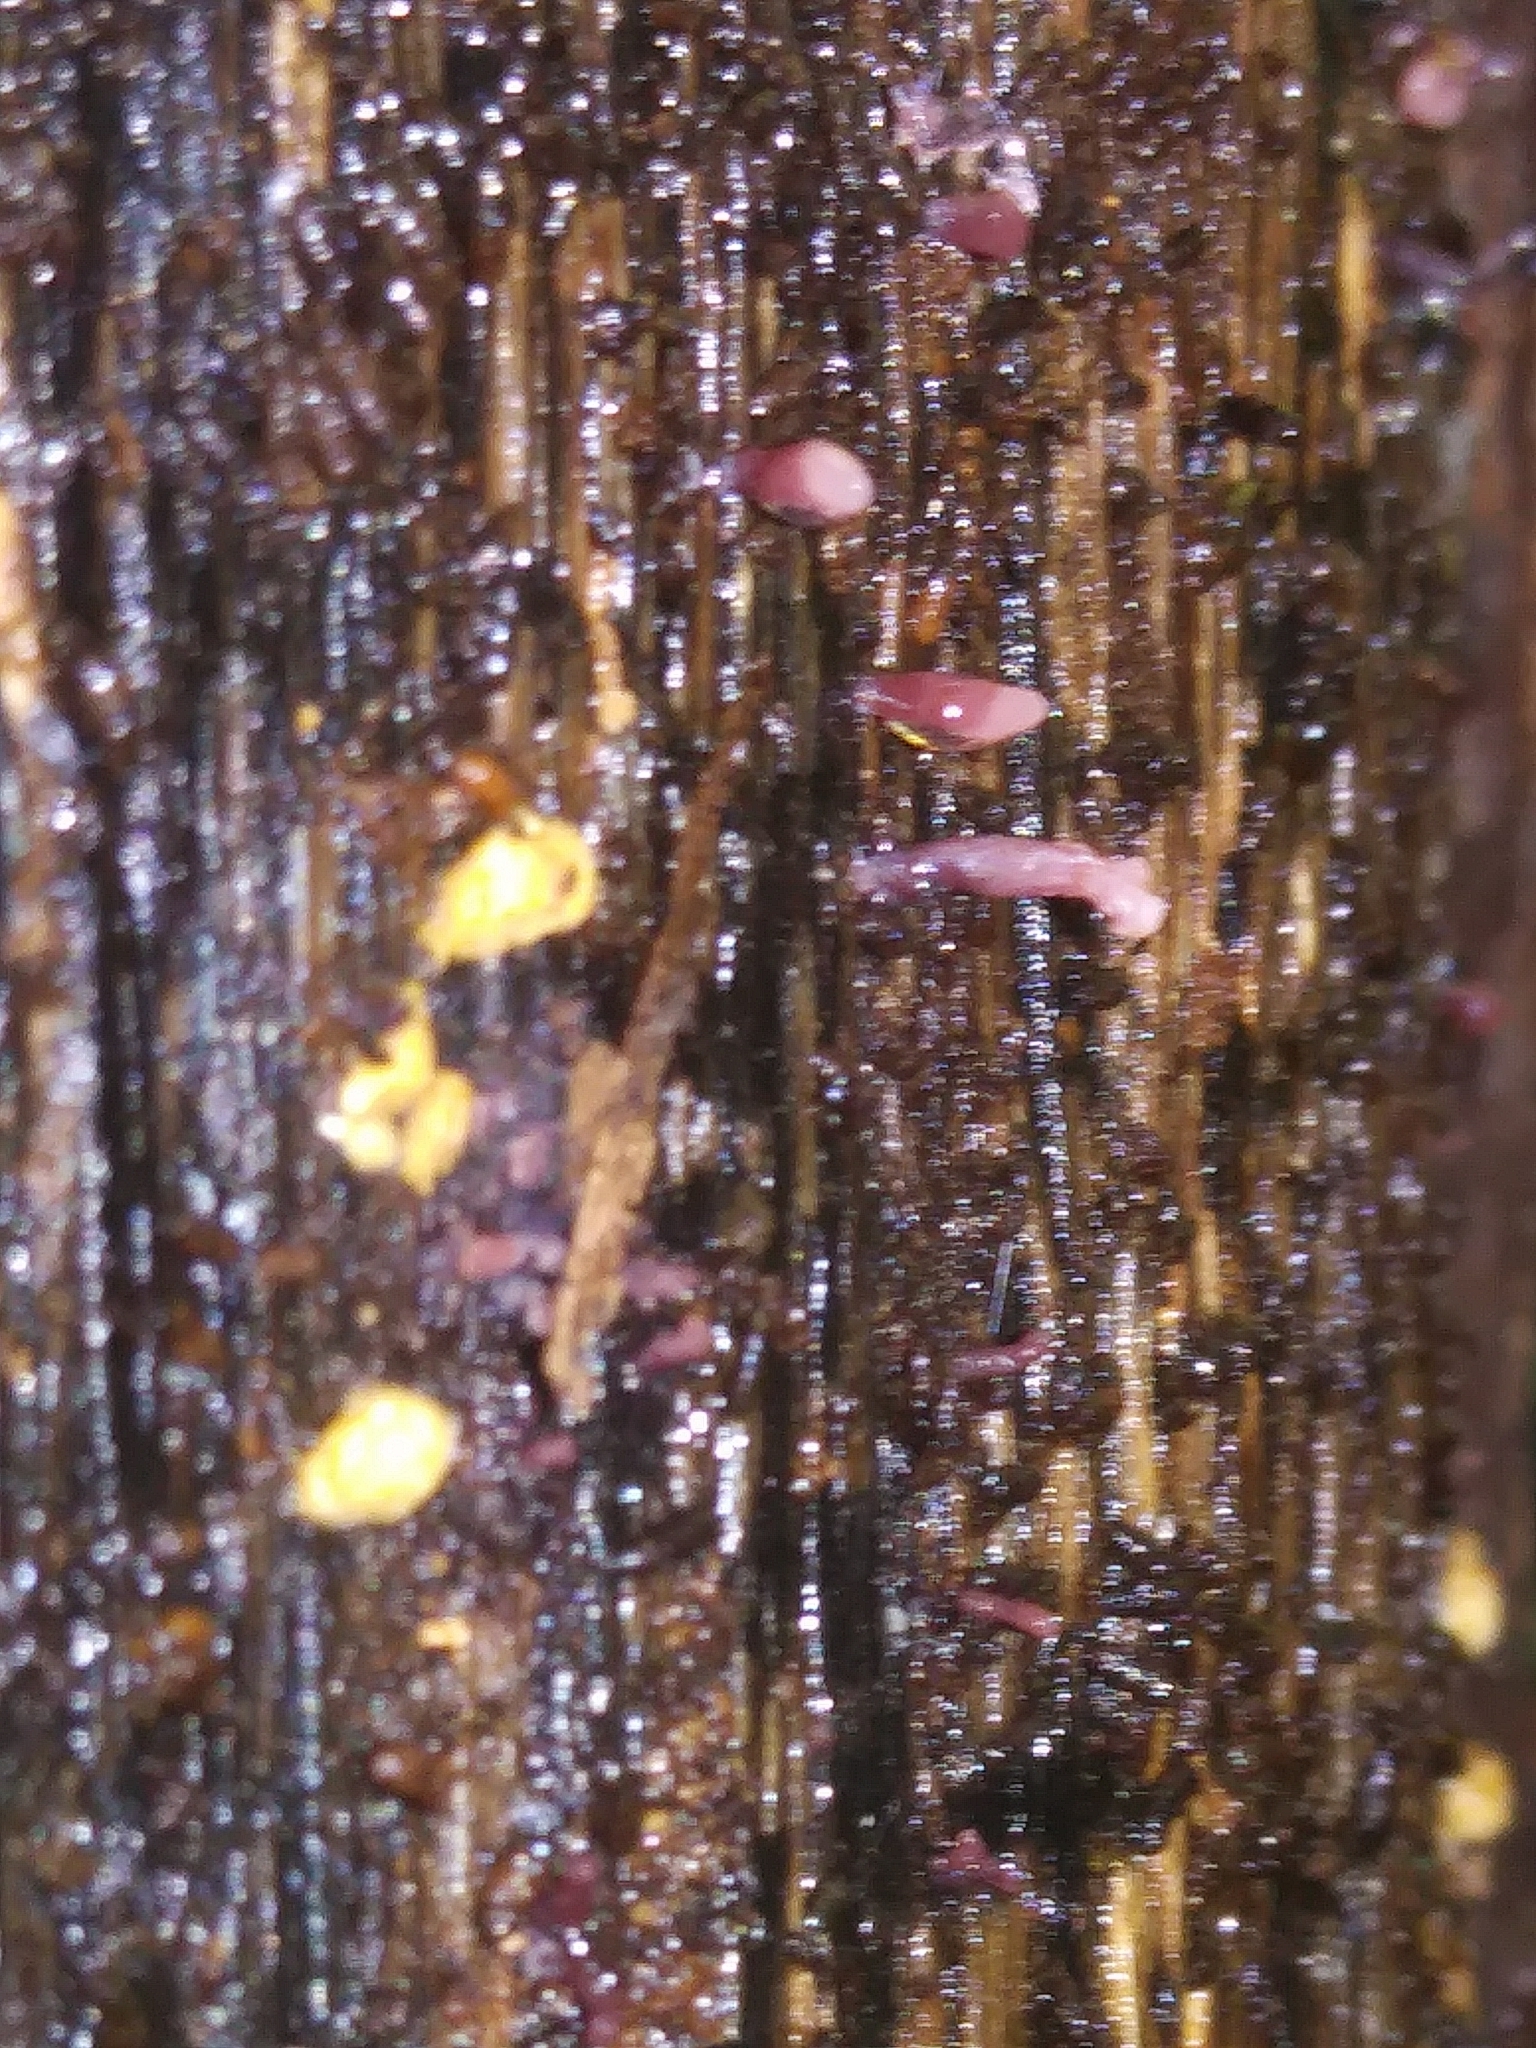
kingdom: Fungi
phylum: Ascomycota
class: Leotiomycetes
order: Helotiales
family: Gelatinodiscaceae
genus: Ascocoryne
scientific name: Ascocoryne sarcoides
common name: Purple jellydisc
